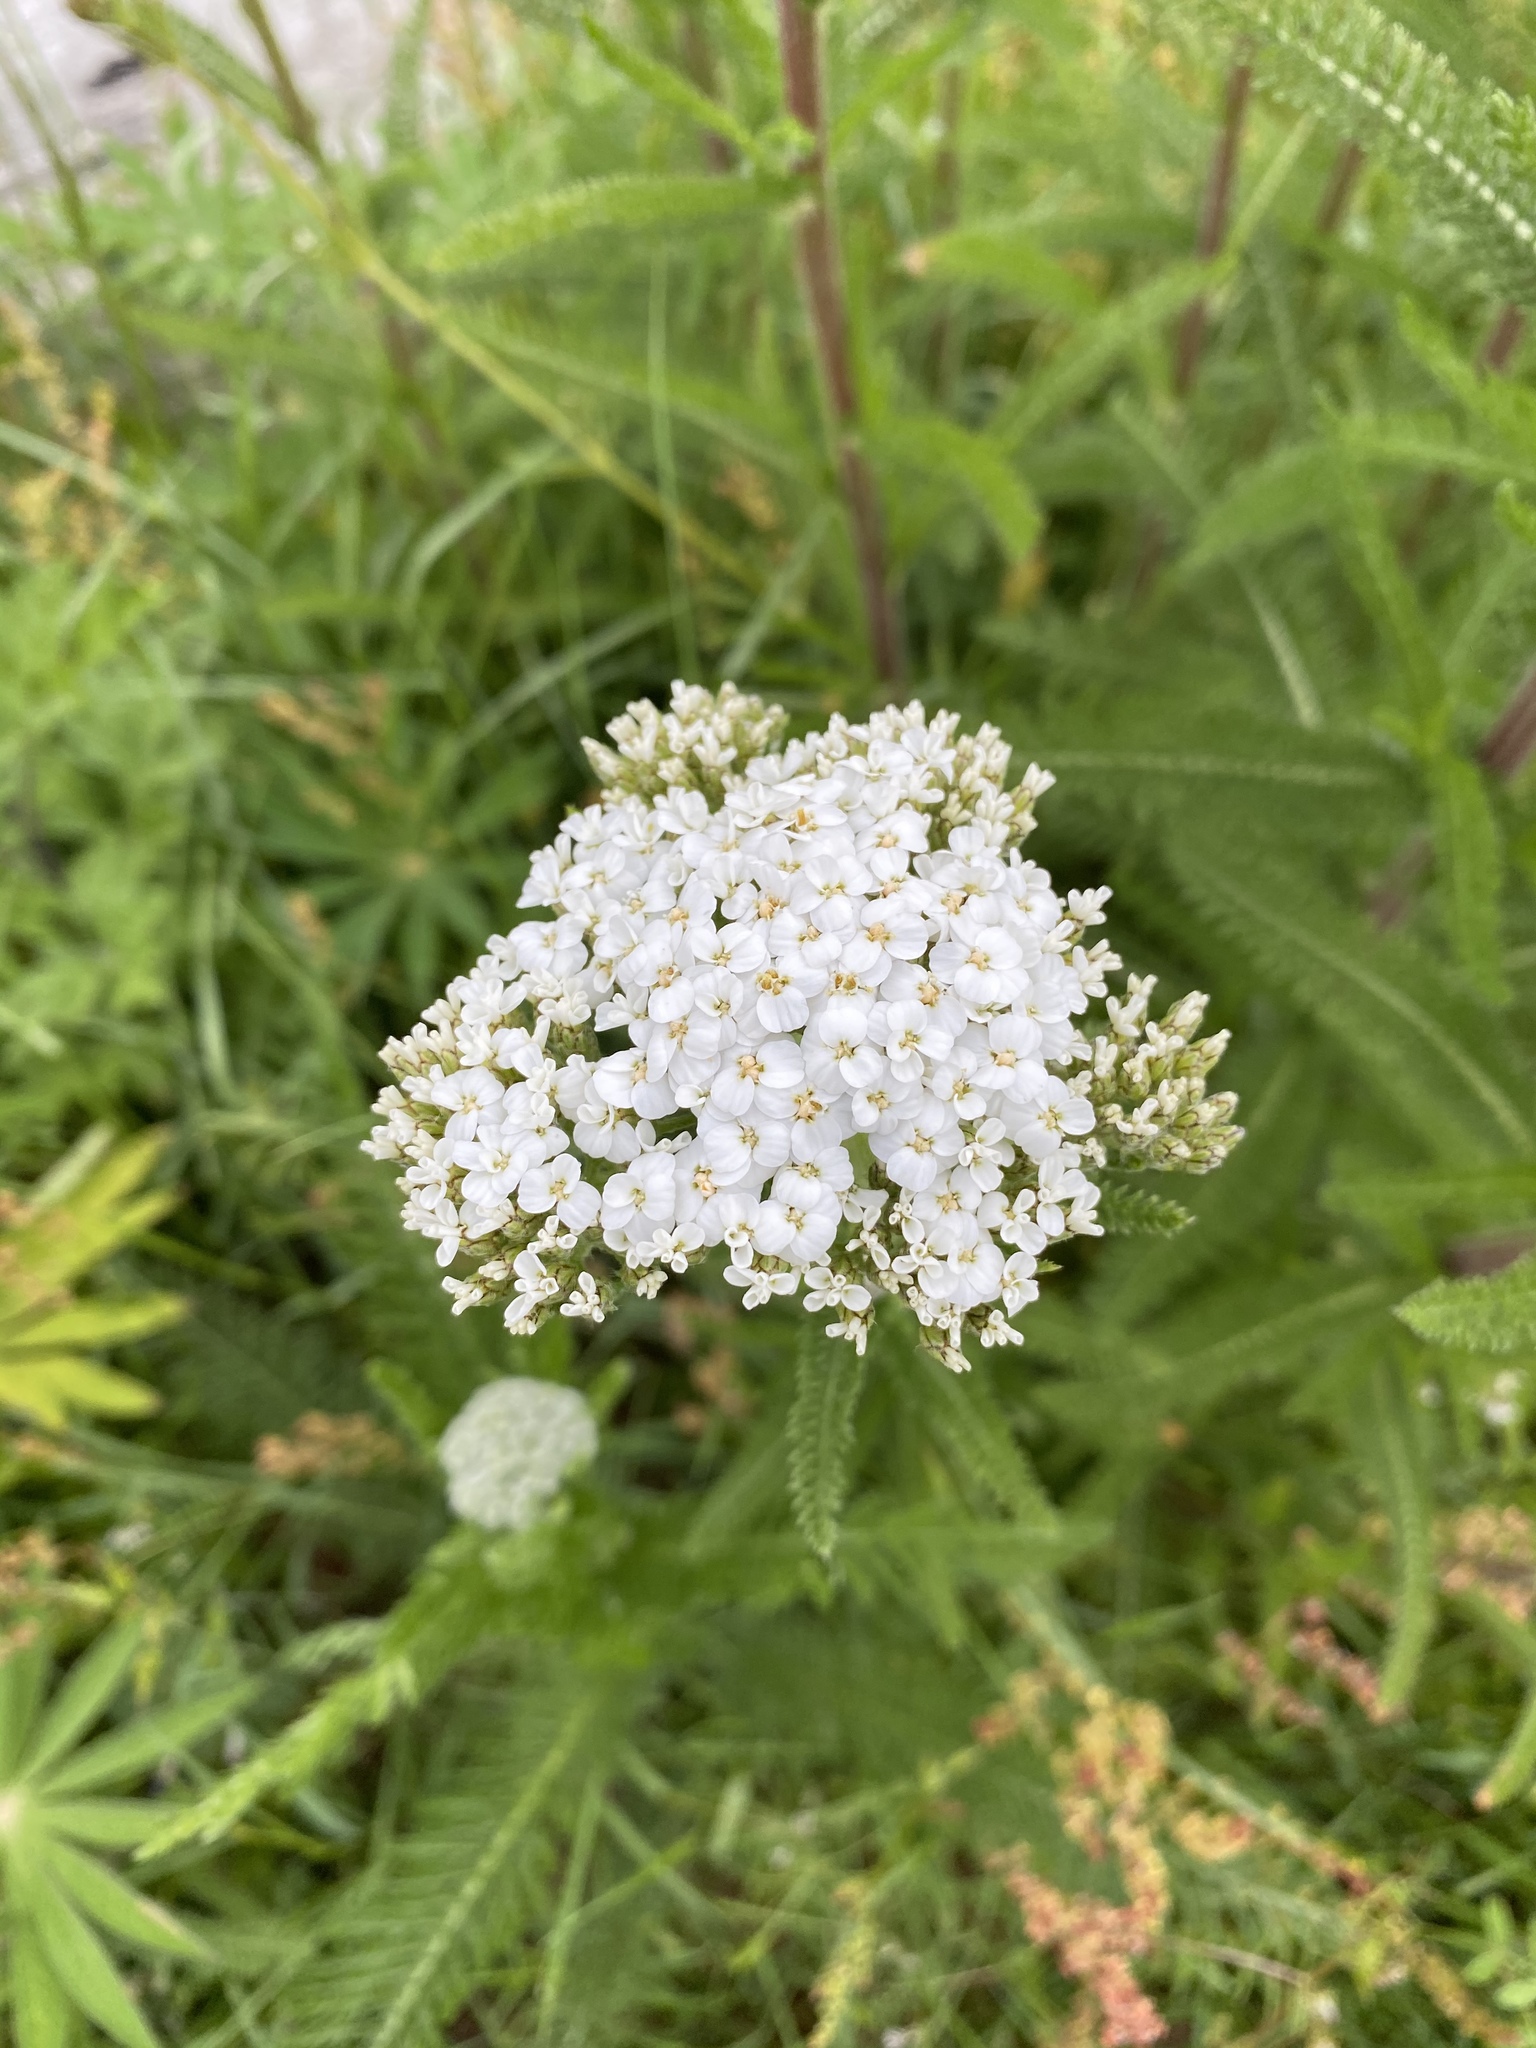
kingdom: Plantae
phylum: Tracheophyta
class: Magnoliopsida
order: Asterales
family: Asteraceae
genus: Achillea
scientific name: Achillea millefolium
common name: Yarrow
